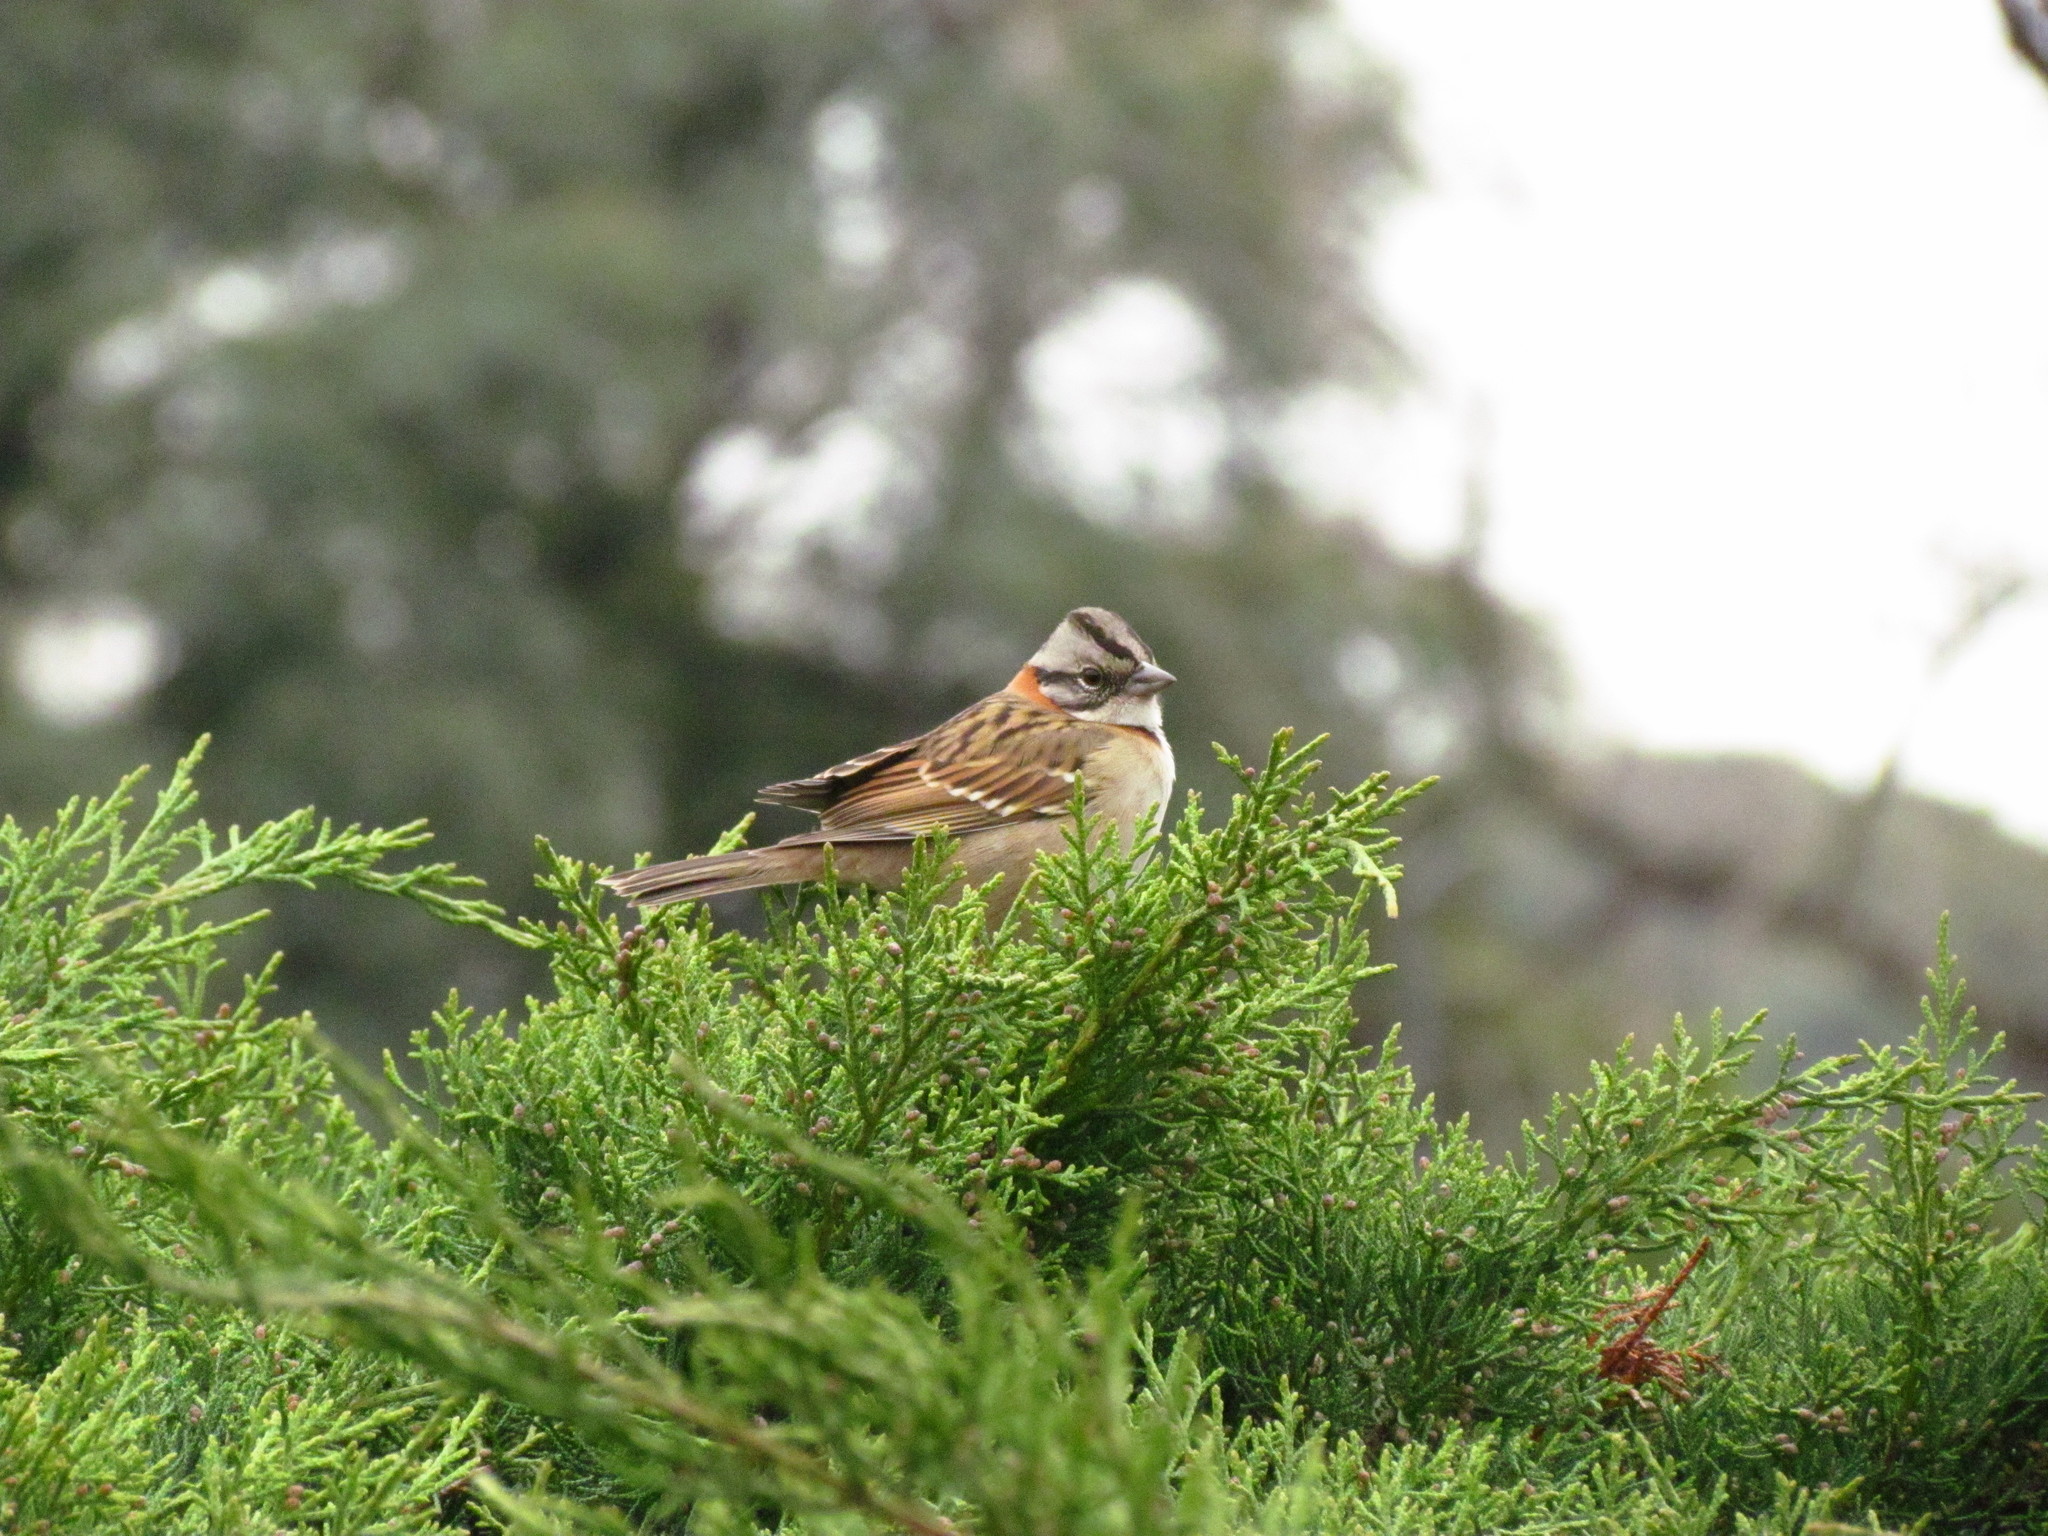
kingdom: Animalia
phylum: Chordata
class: Aves
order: Passeriformes
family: Passerellidae
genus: Zonotrichia
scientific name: Zonotrichia capensis
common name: Rufous-collared sparrow
